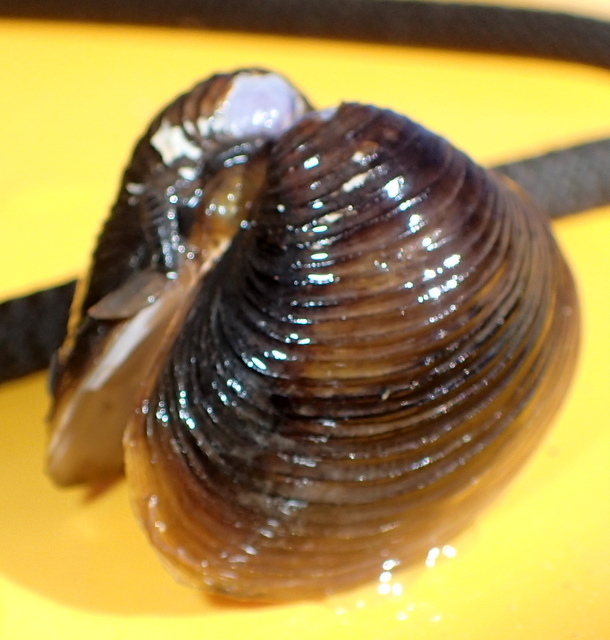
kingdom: Animalia
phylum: Mollusca
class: Bivalvia
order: Venerida
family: Cyrenidae
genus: Corbicula
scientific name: Corbicula fluminea
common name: Asian clam
